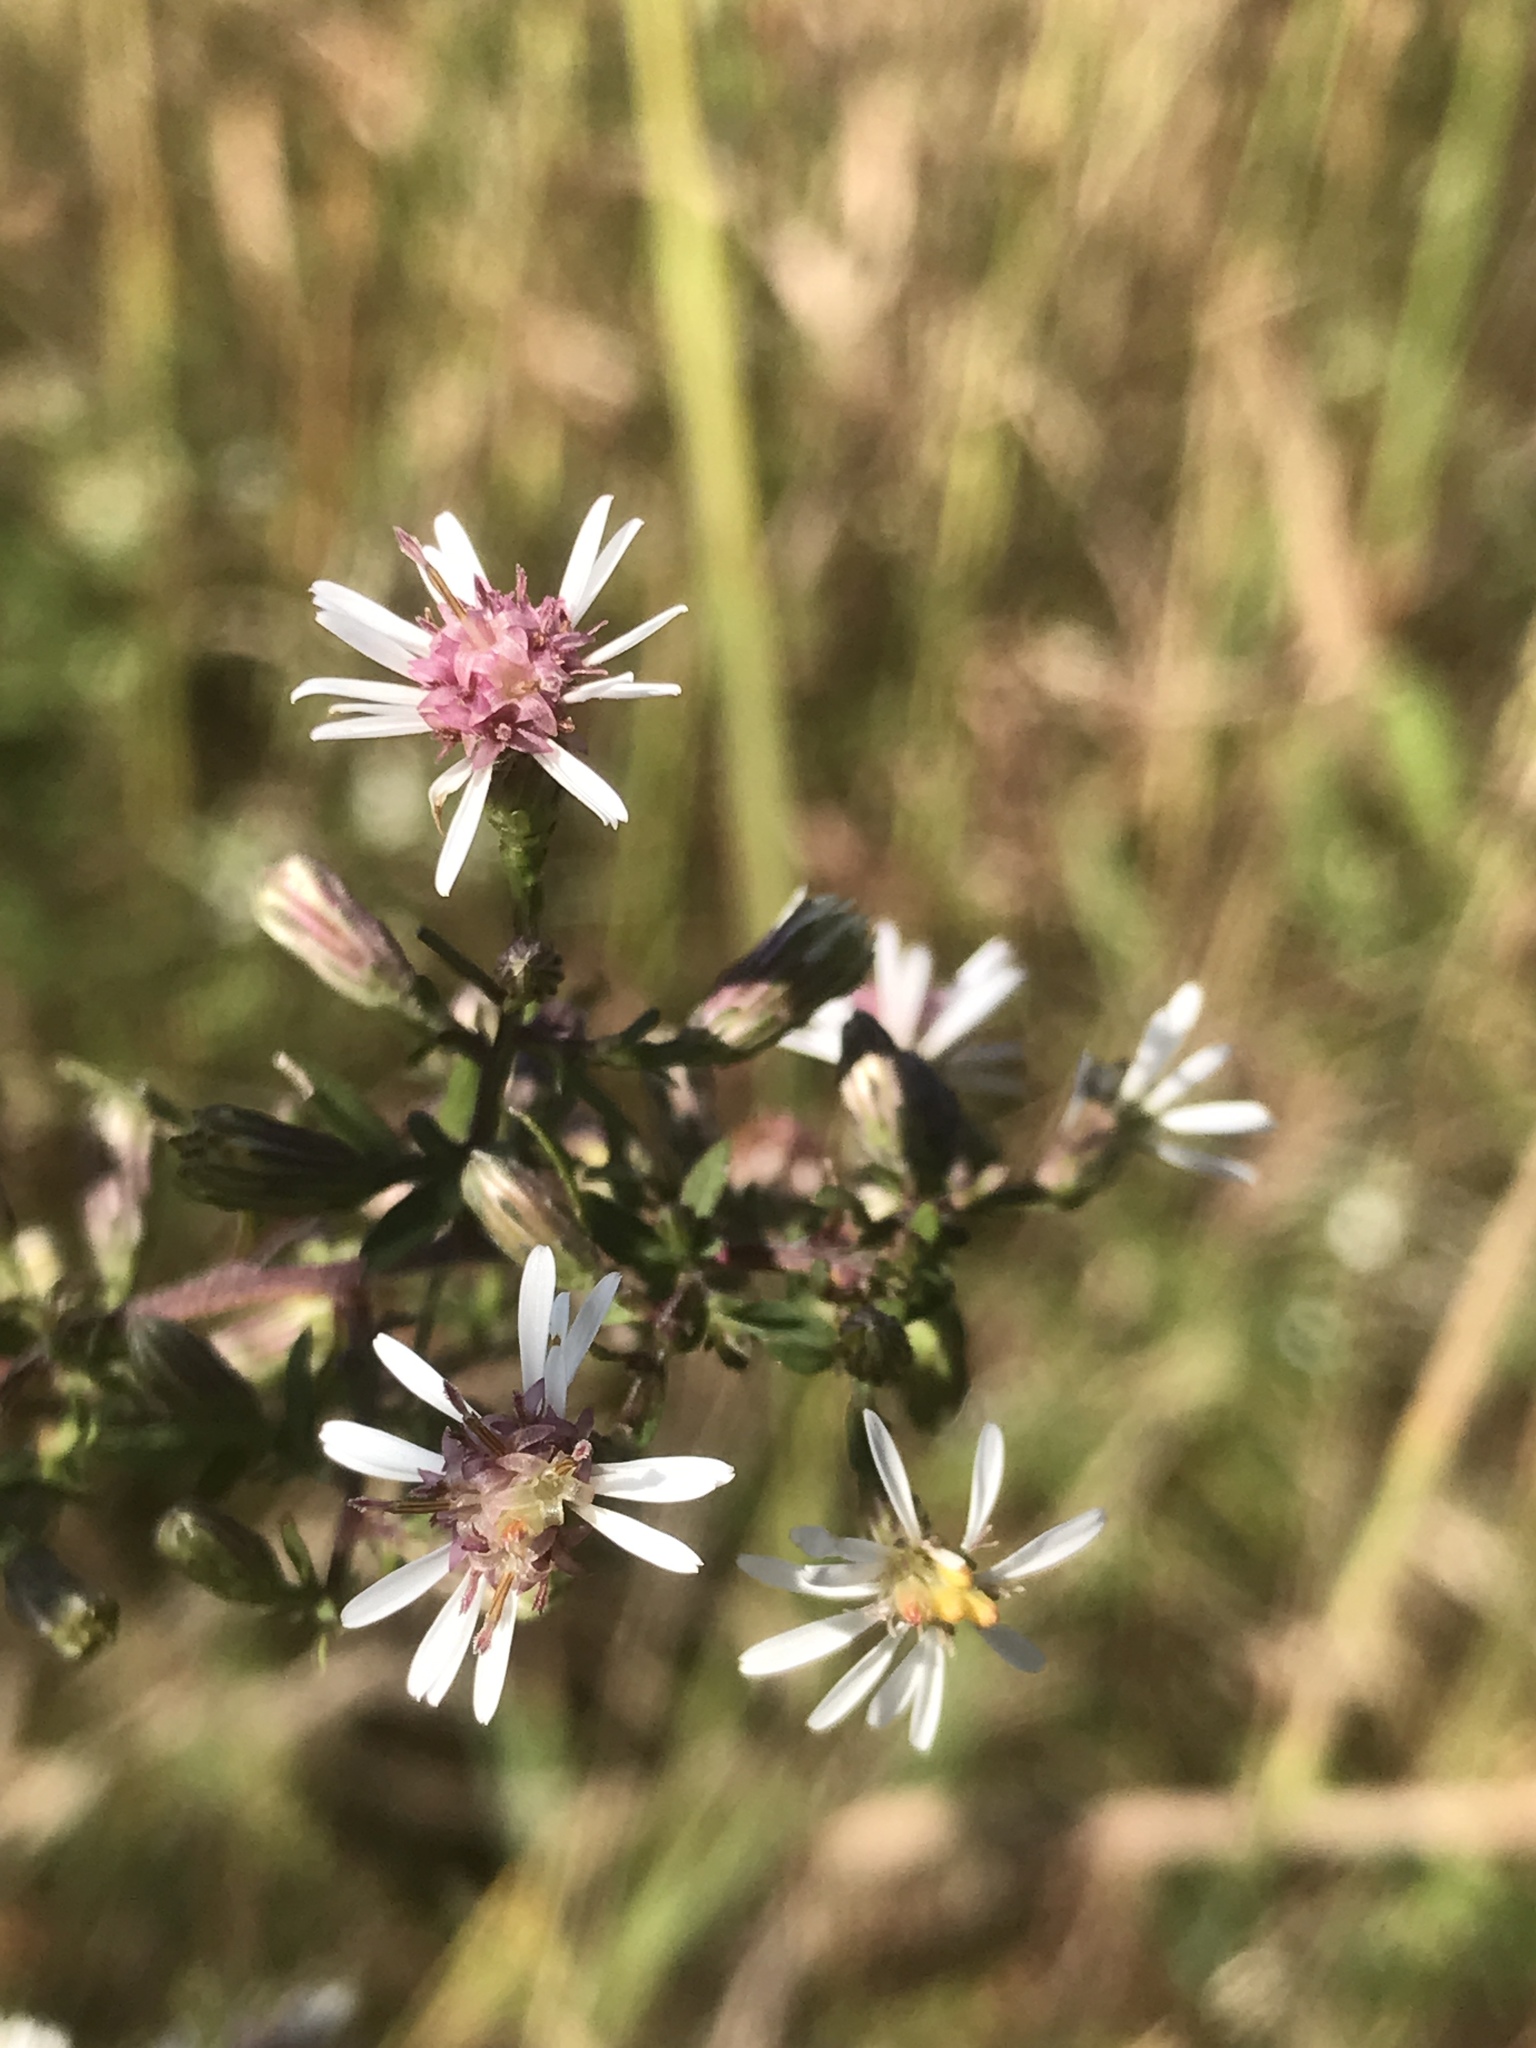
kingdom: Plantae
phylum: Tracheophyta
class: Magnoliopsida
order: Asterales
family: Asteraceae
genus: Symphyotrichum
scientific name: Symphyotrichum lateriflorum
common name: Calico aster
